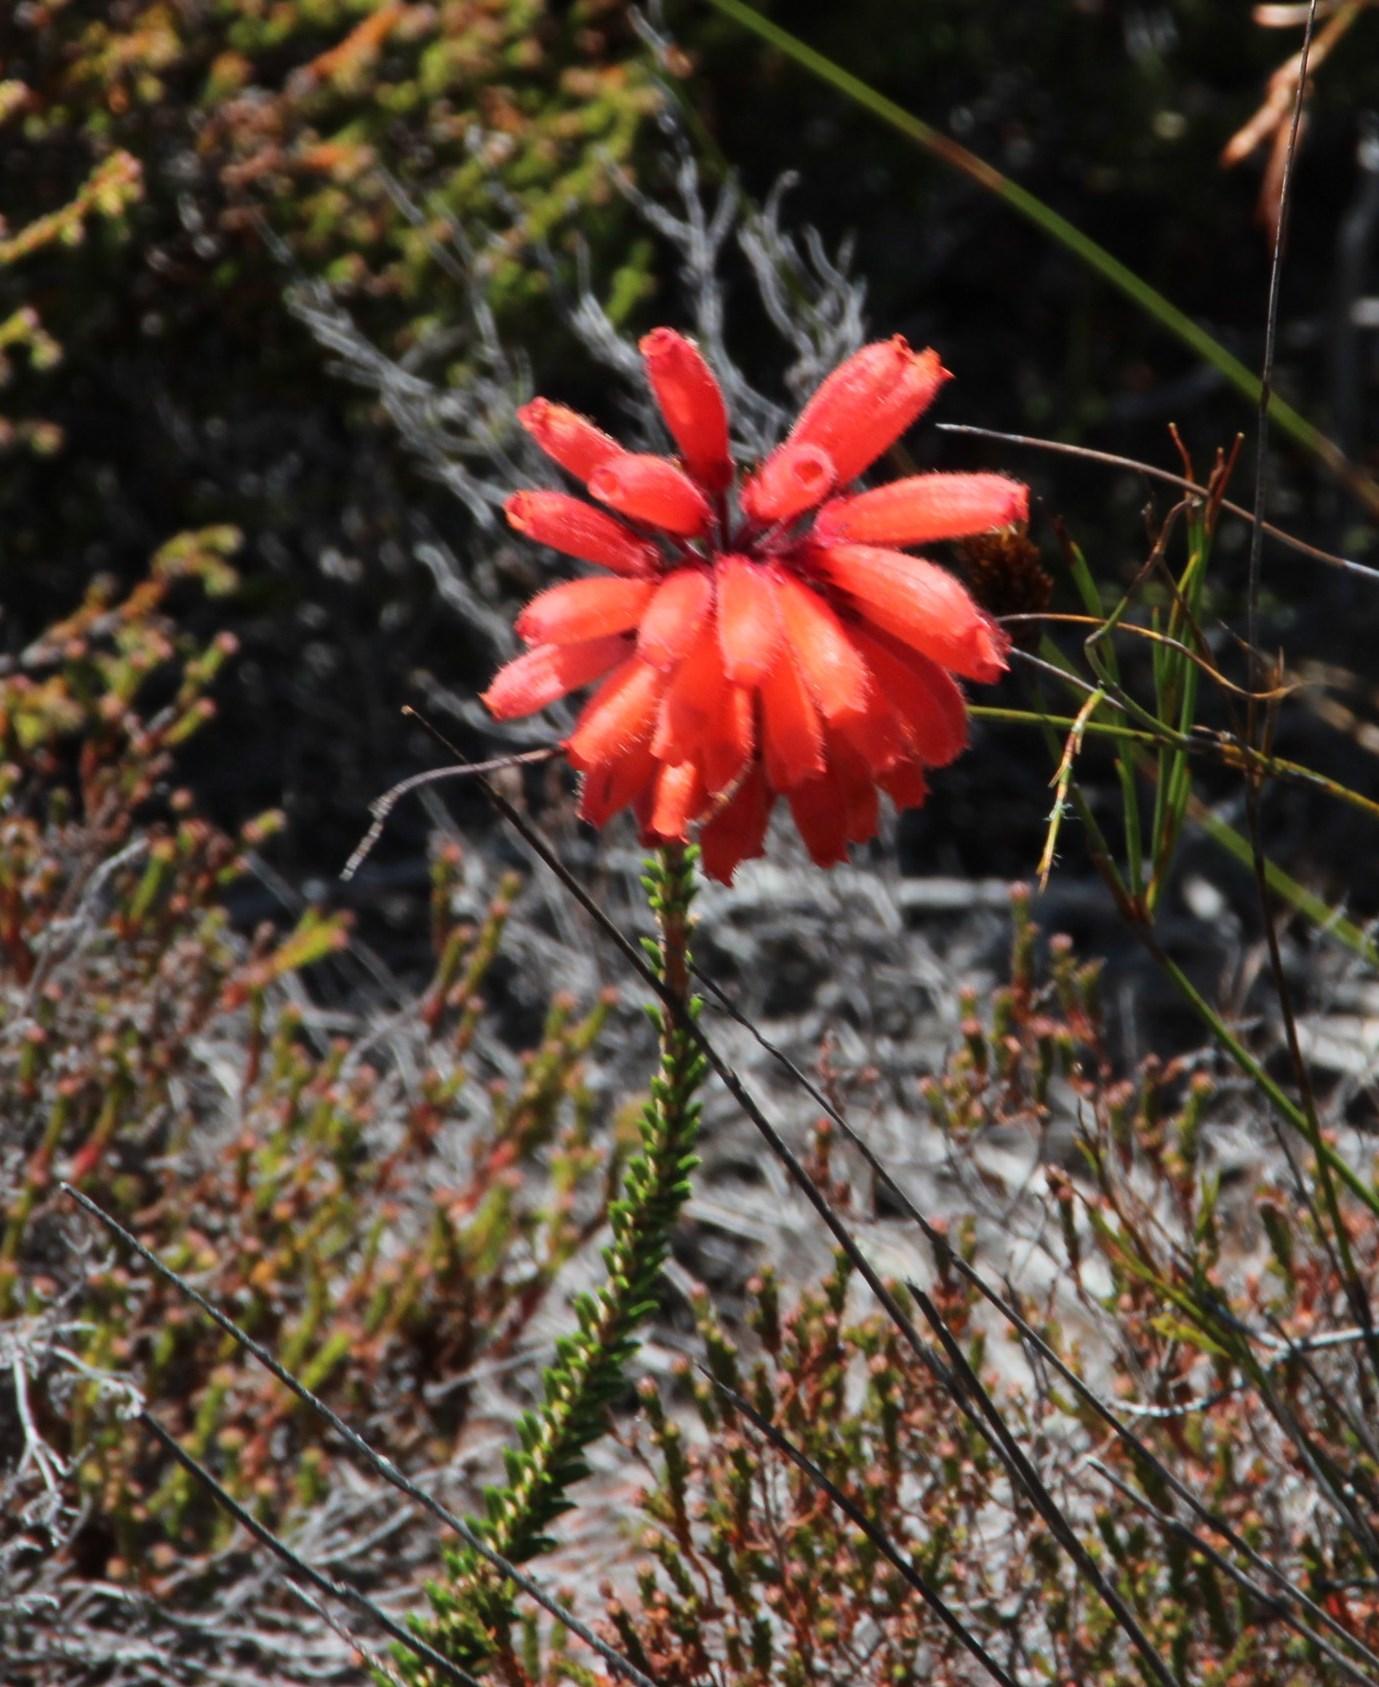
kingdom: Plantae
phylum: Tracheophyta
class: Magnoliopsida
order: Ericales
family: Ericaceae
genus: Erica
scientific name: Erica cerinthoides
